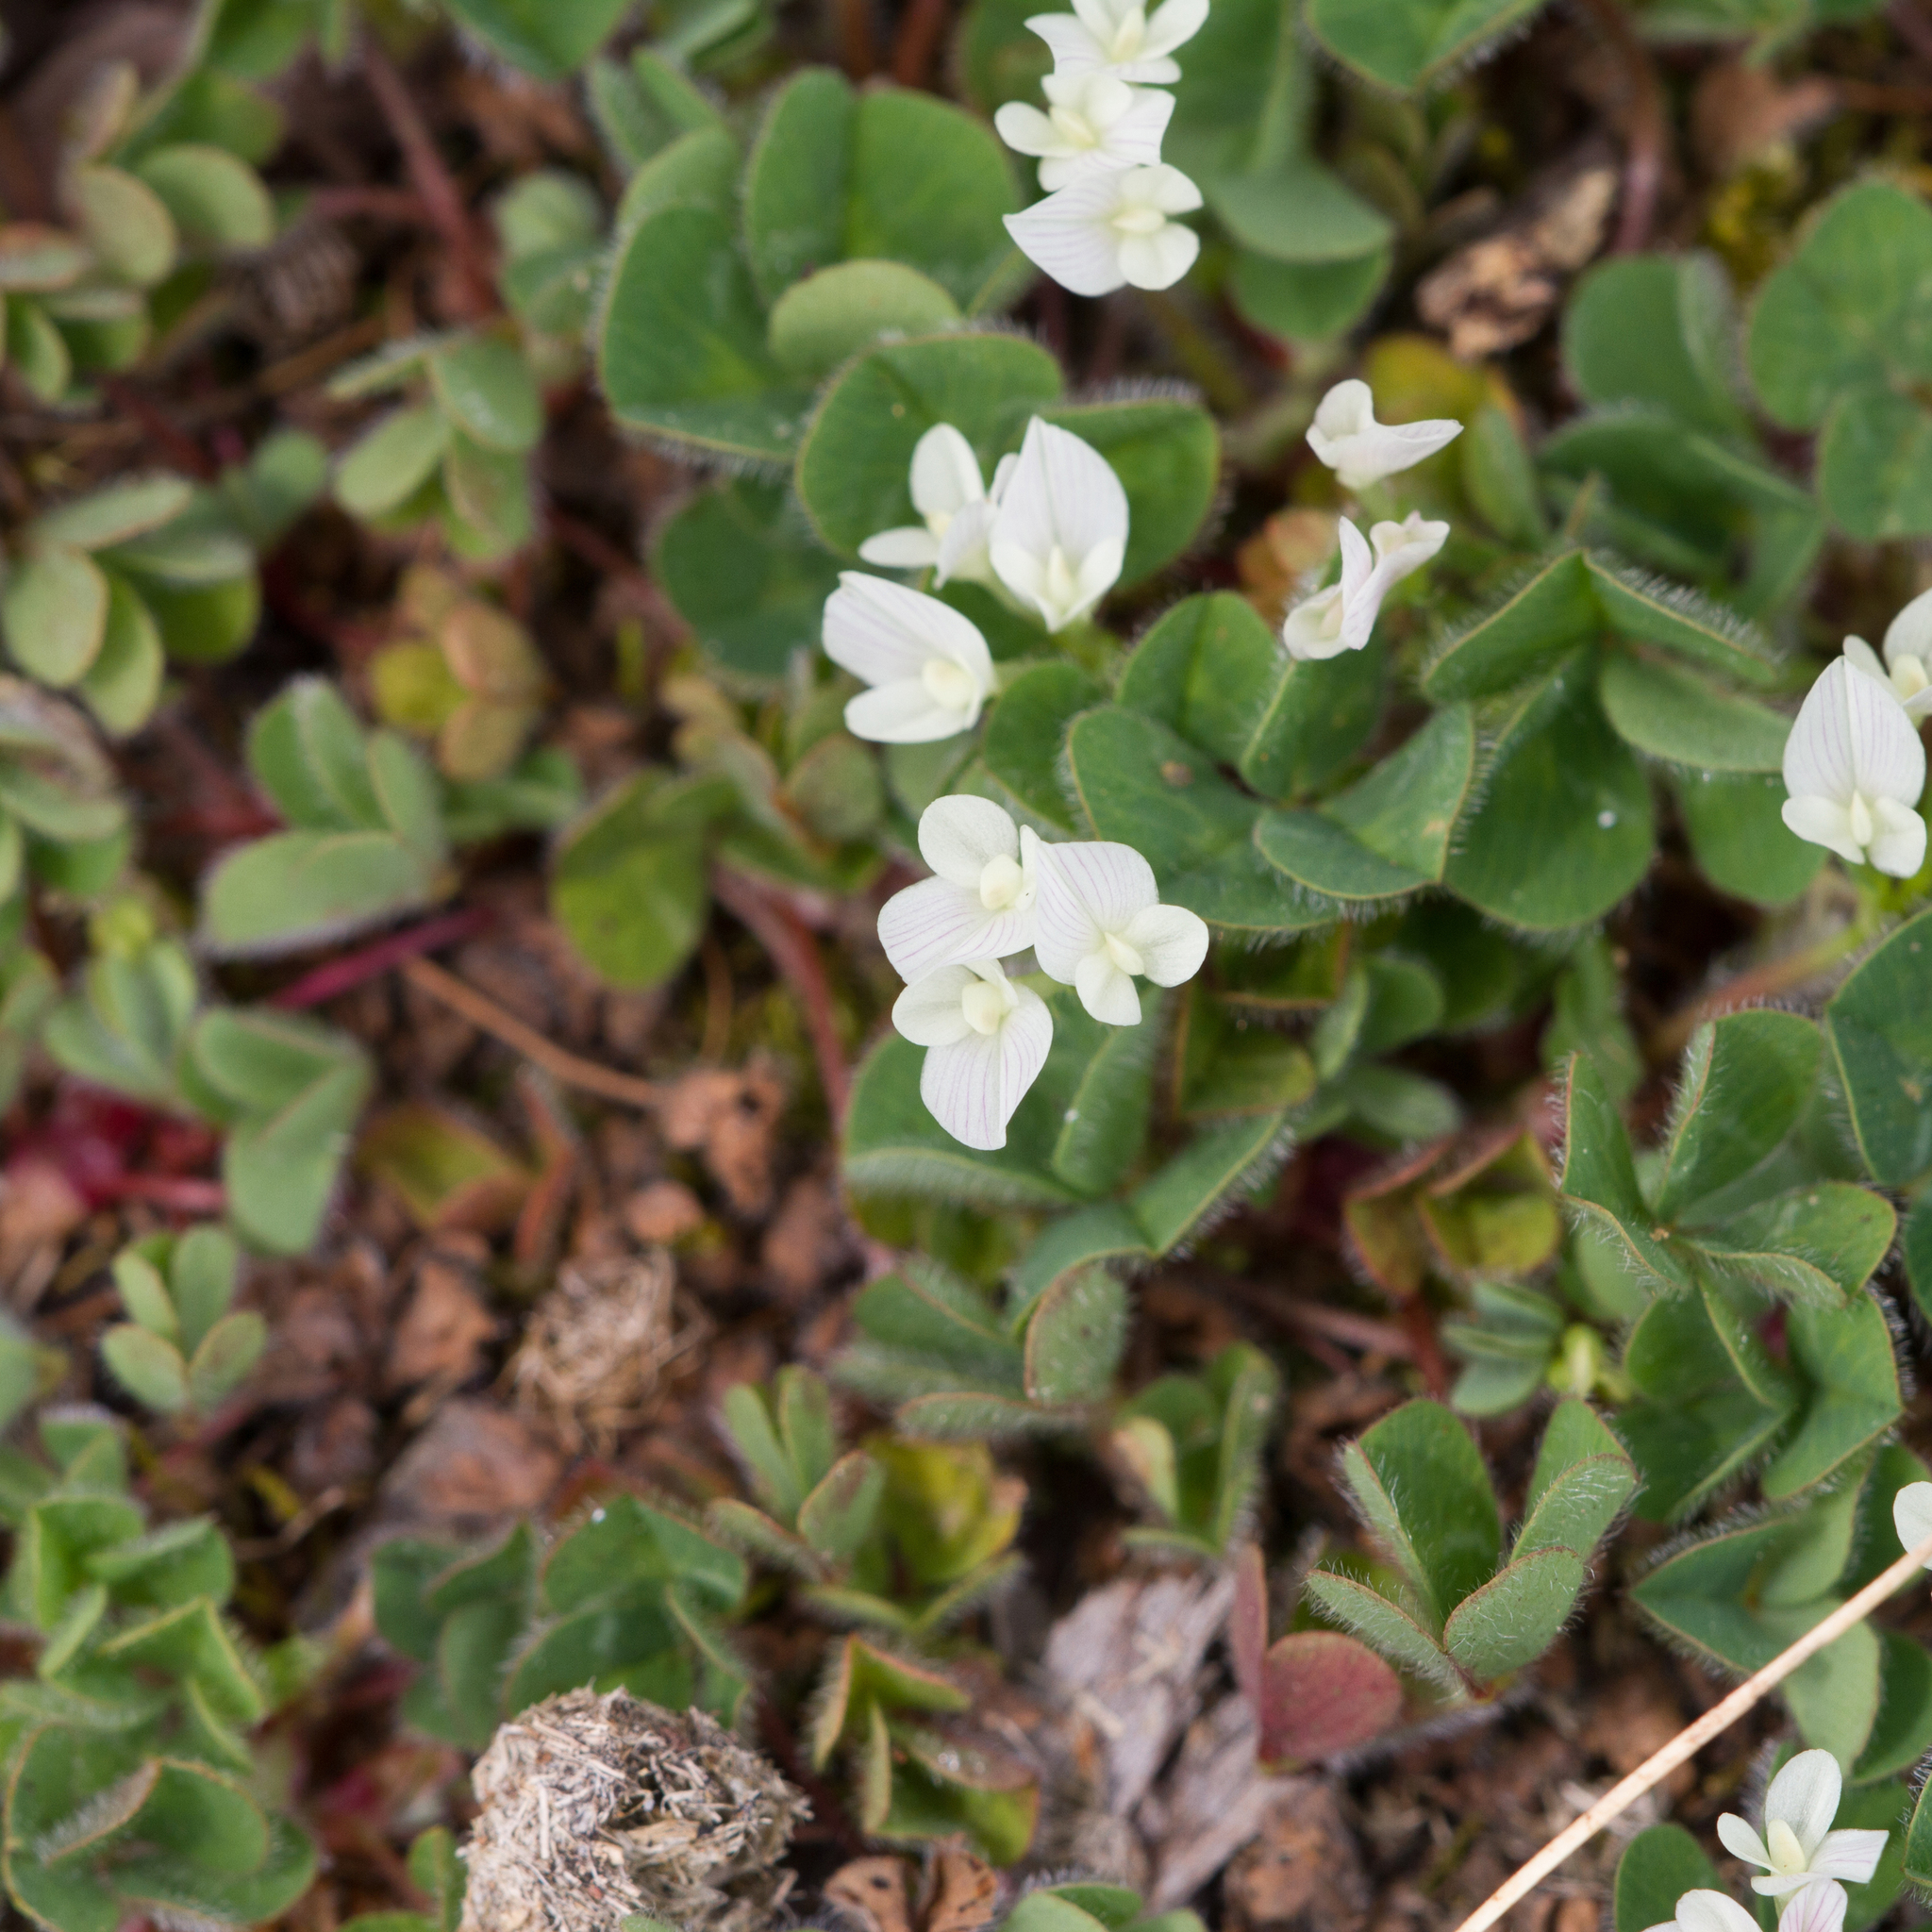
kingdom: Plantae
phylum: Tracheophyta
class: Magnoliopsida
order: Fabales
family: Fabaceae
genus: Trifolium
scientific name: Trifolium subterraneum
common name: Subterranean clover
